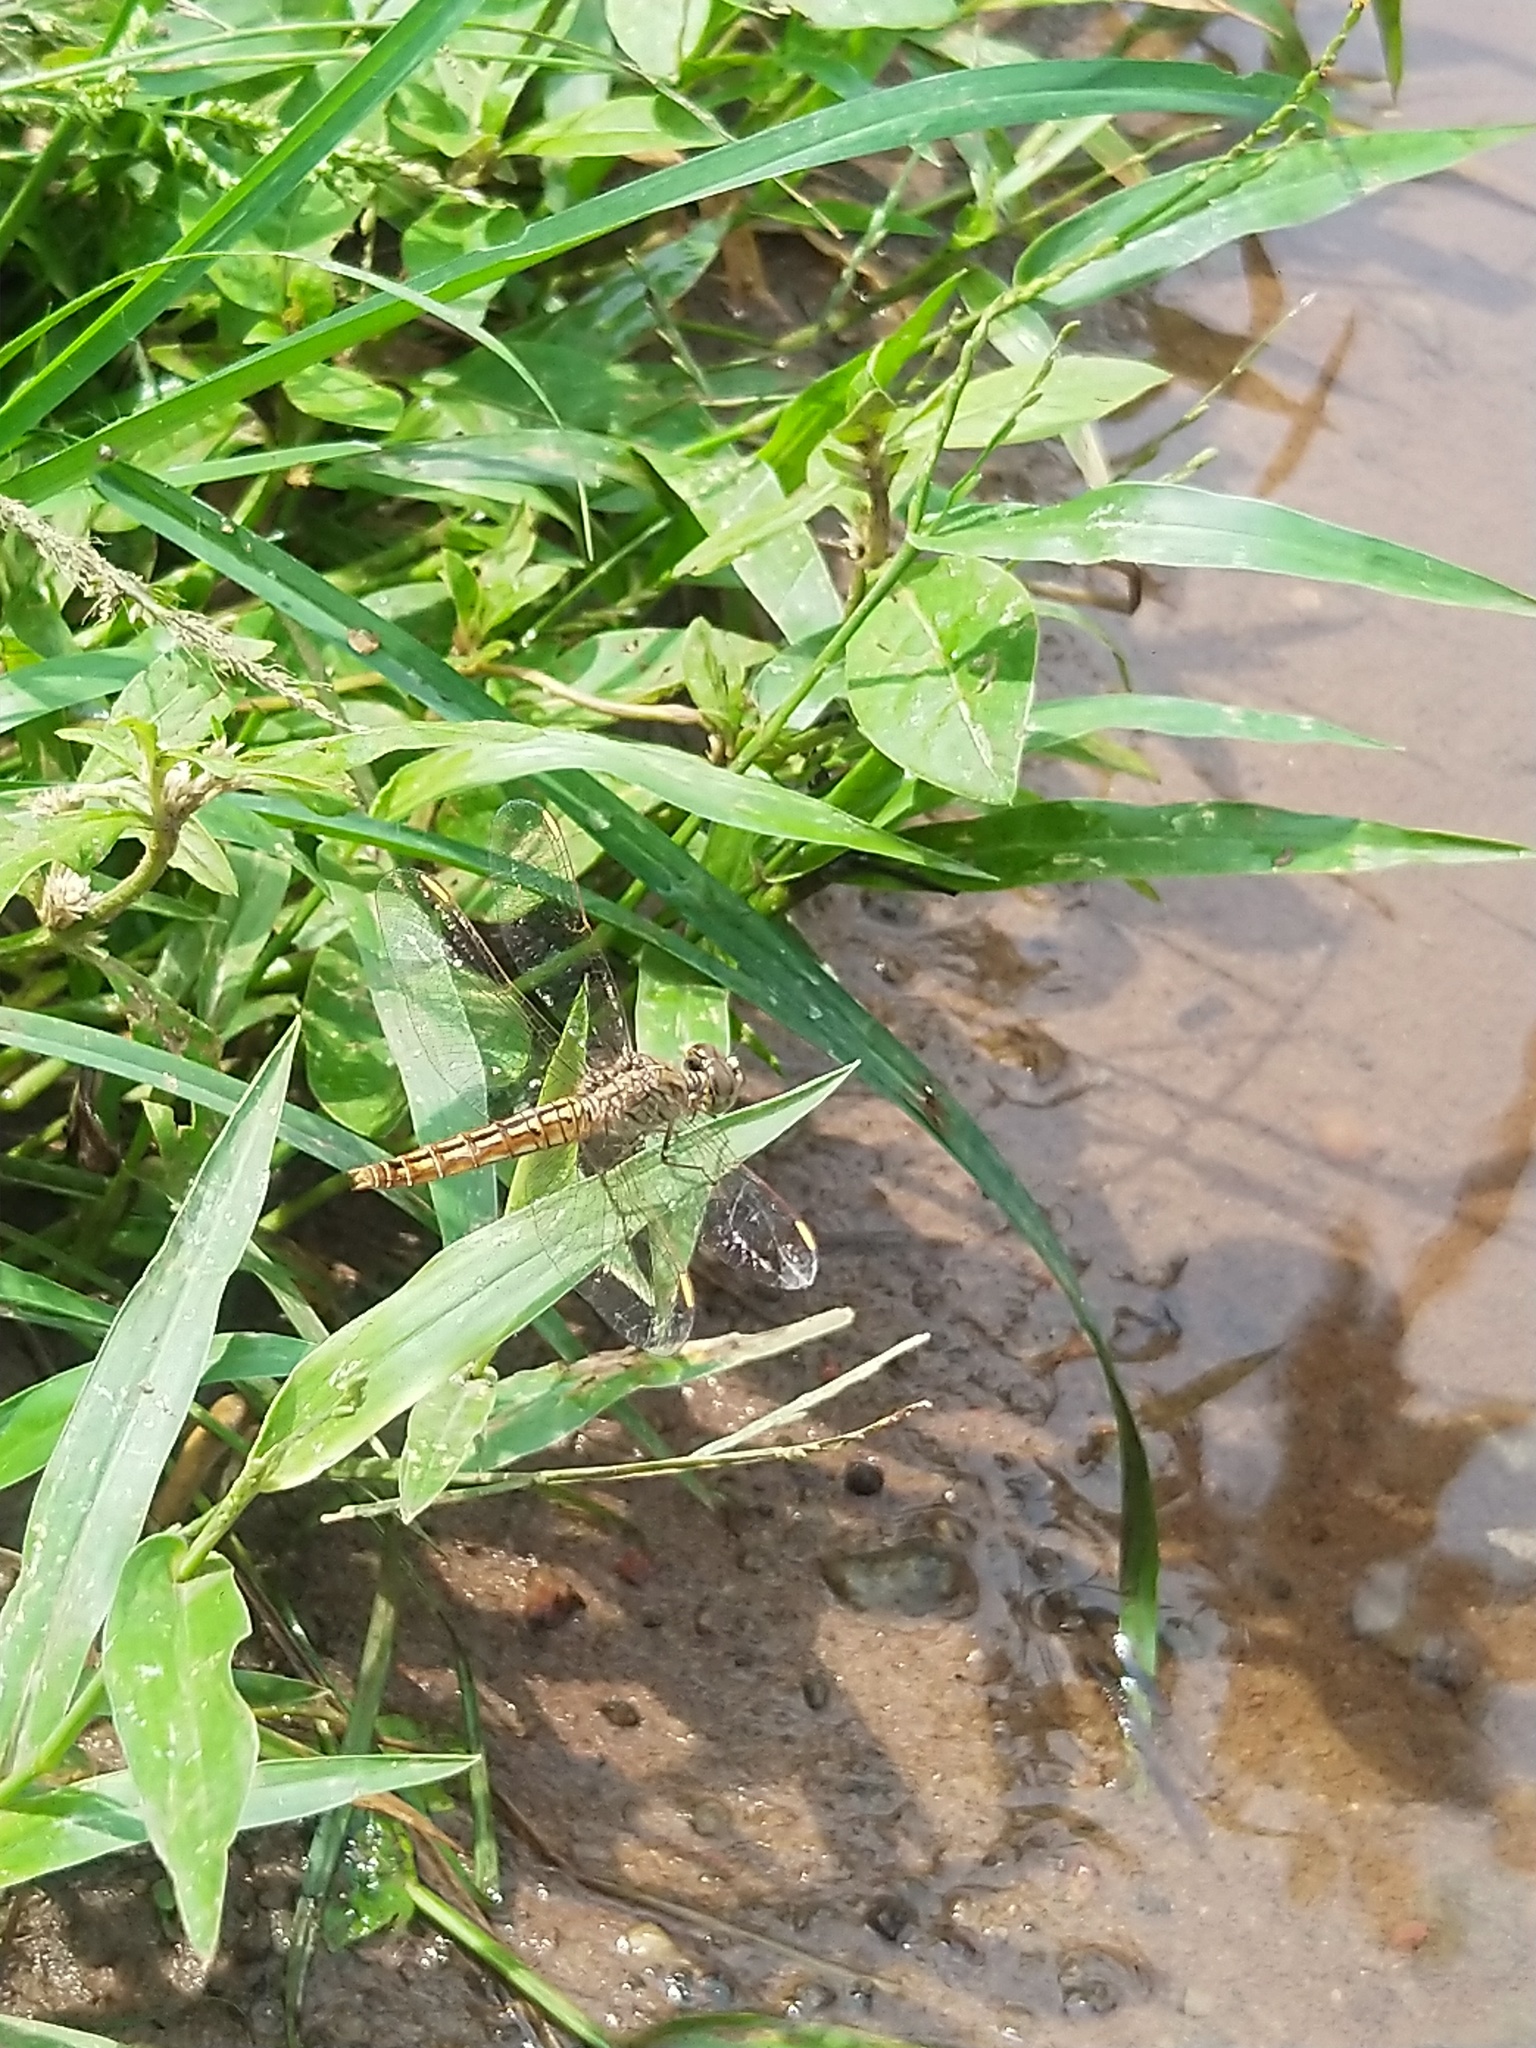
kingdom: Animalia
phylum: Arthropoda
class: Insecta
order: Odonata
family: Libellulidae
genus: Brachythemis
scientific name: Brachythemis contaminata
